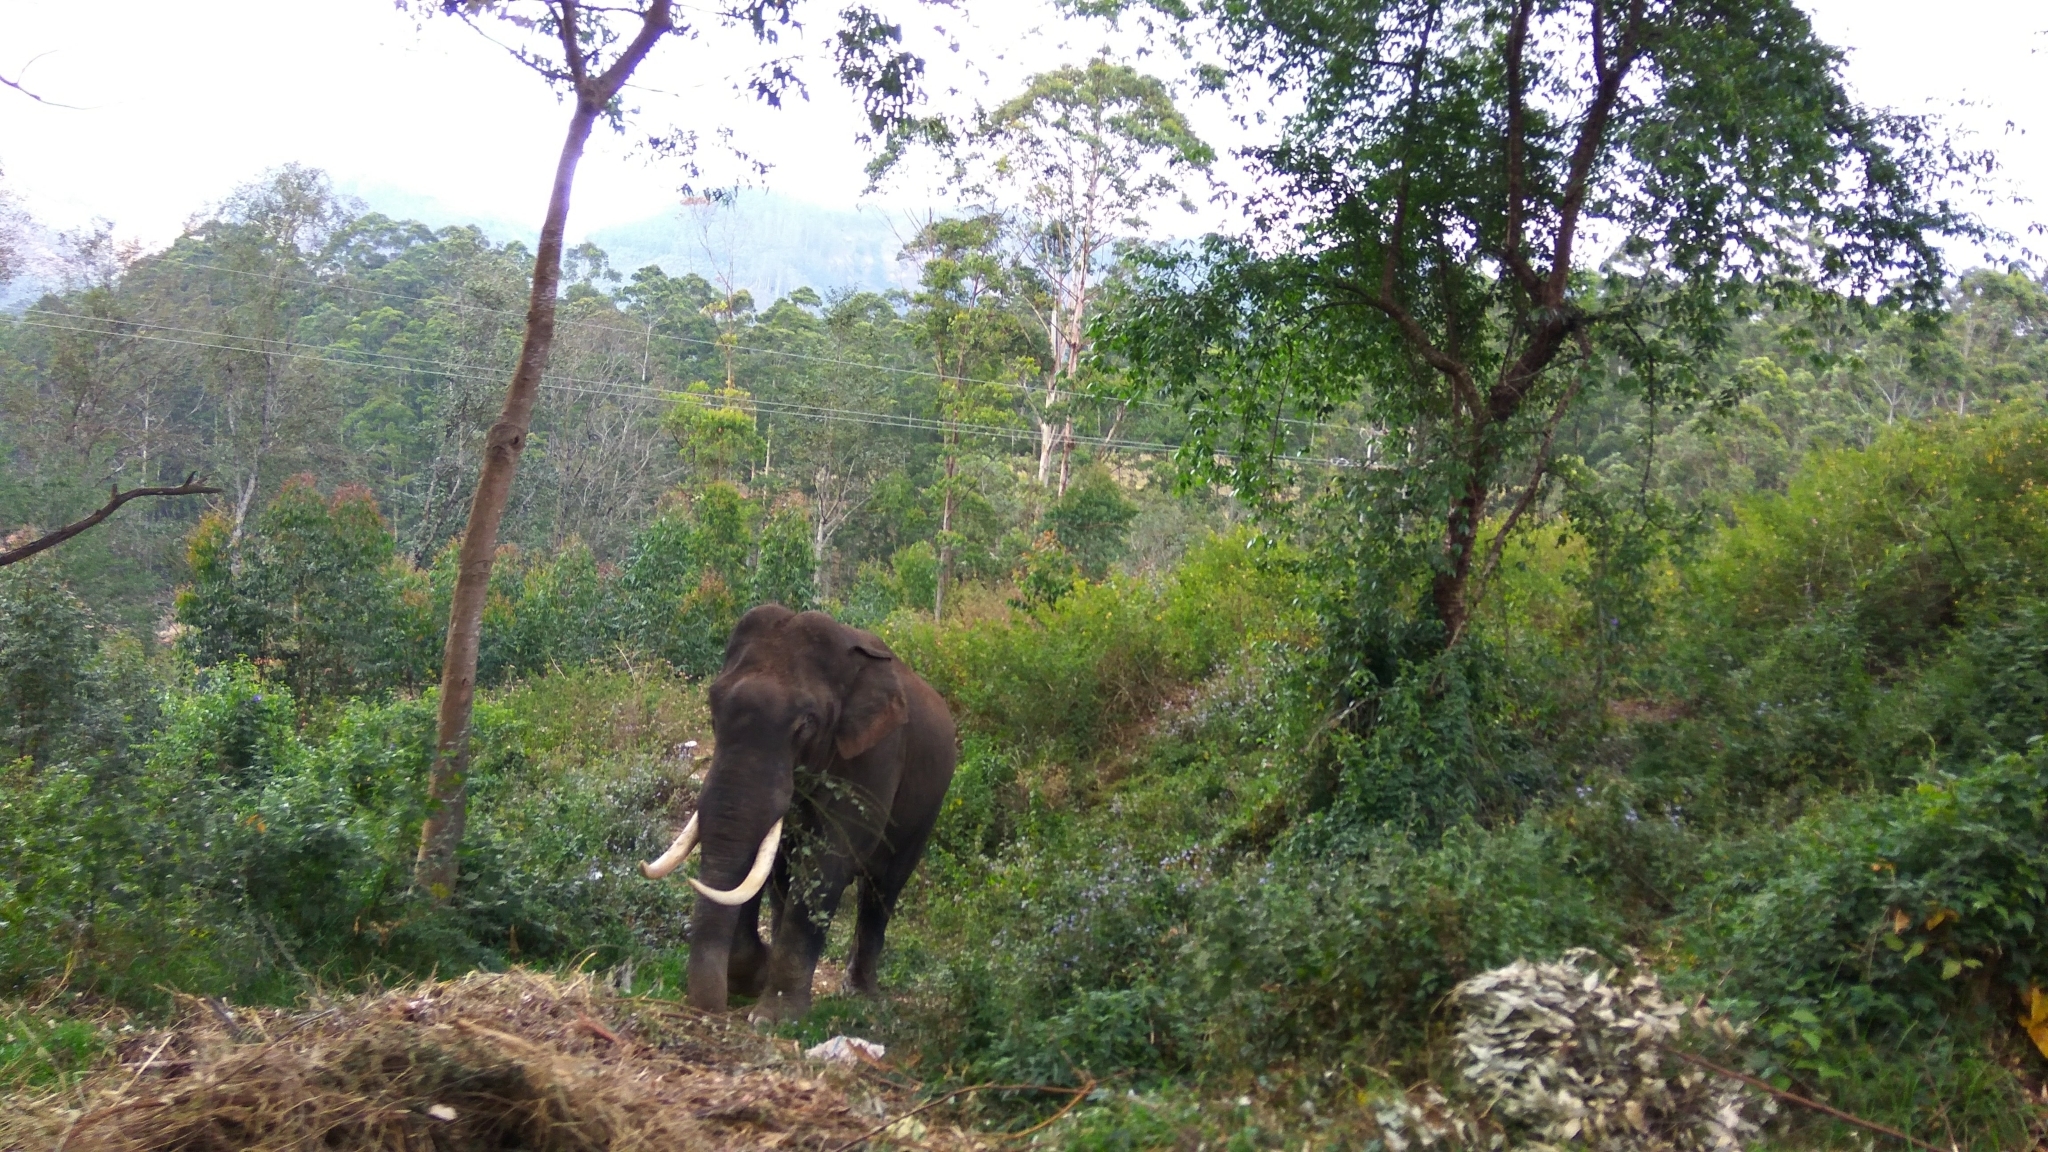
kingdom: Animalia
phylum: Chordata
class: Mammalia
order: Proboscidea
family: Elephantidae
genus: Elephas
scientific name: Elephas maximus
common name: Asian elephant
